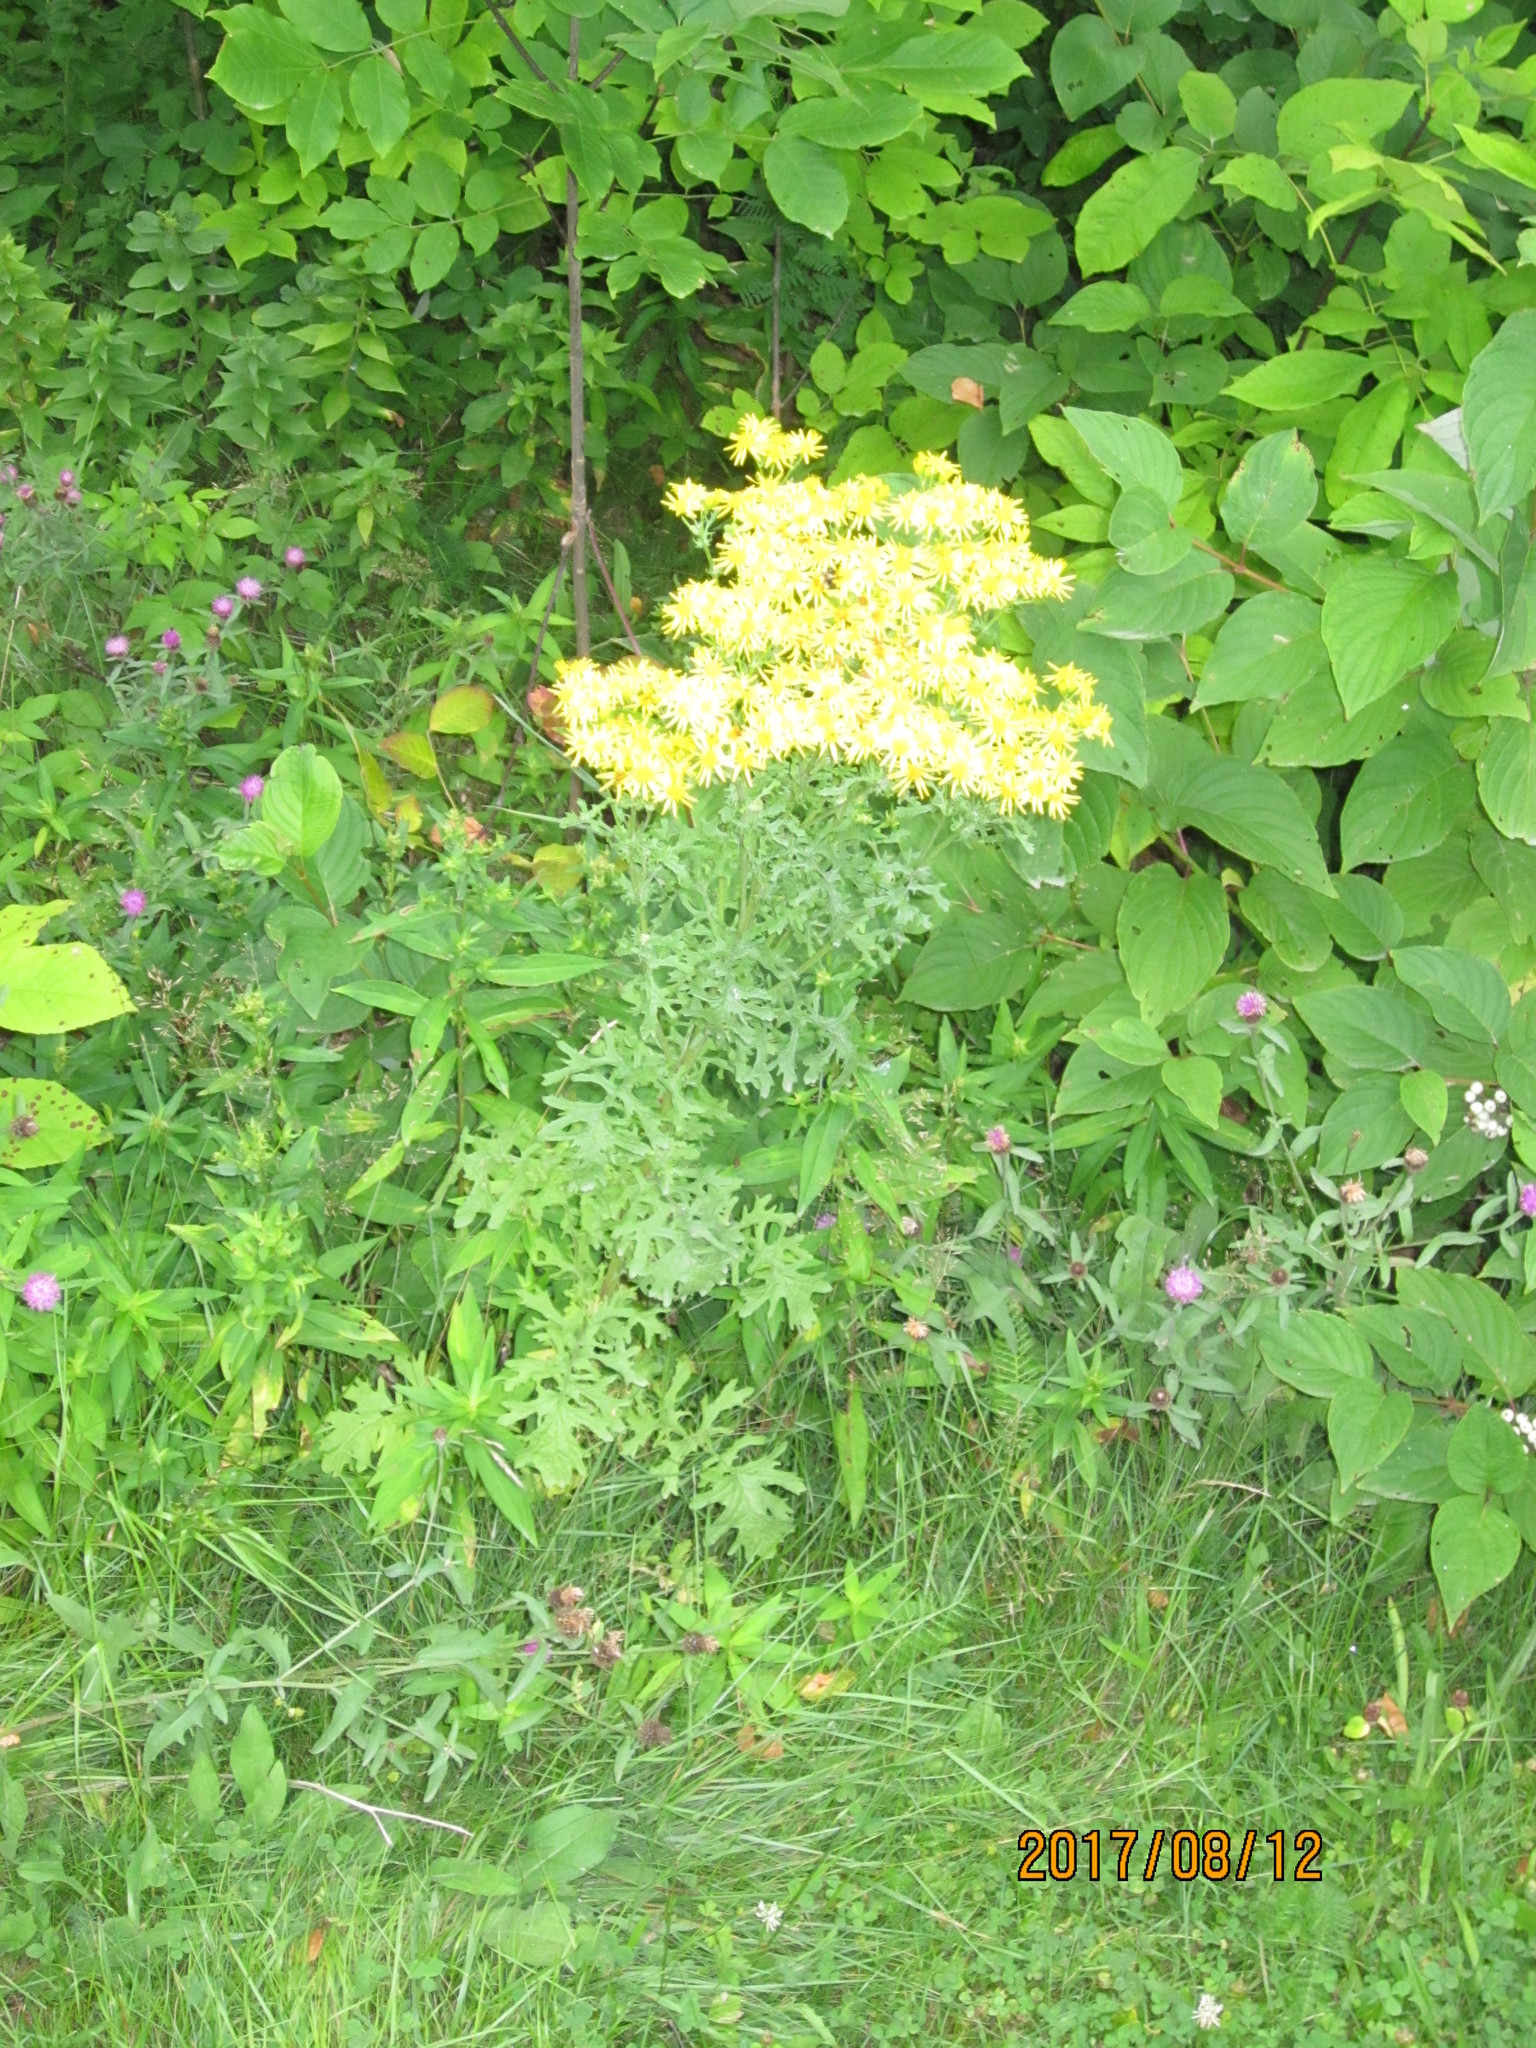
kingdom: Plantae
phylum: Tracheophyta
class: Magnoliopsida
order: Asterales
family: Asteraceae
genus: Jacobaea
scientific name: Jacobaea vulgaris
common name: Stinking willie
